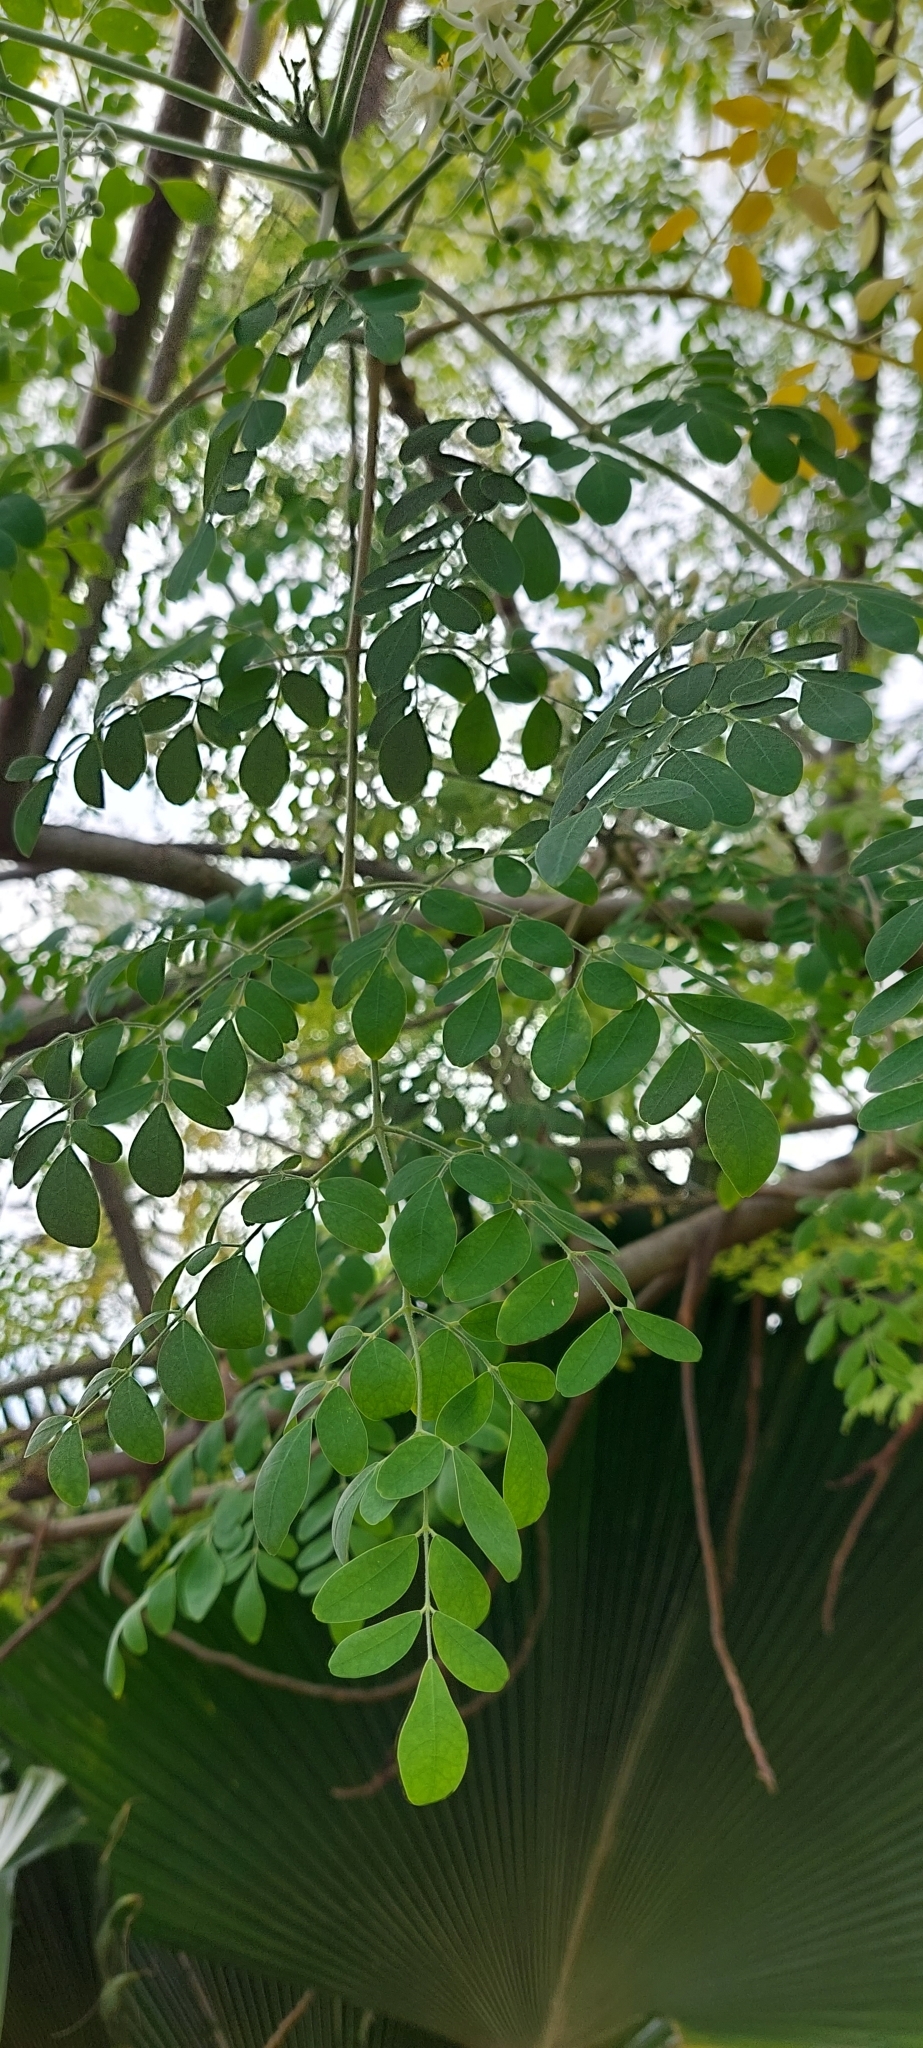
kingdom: Plantae
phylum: Tracheophyta
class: Magnoliopsida
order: Brassicales
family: Moringaceae
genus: Moringa
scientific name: Moringa oleifera
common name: Horseradish-tree
